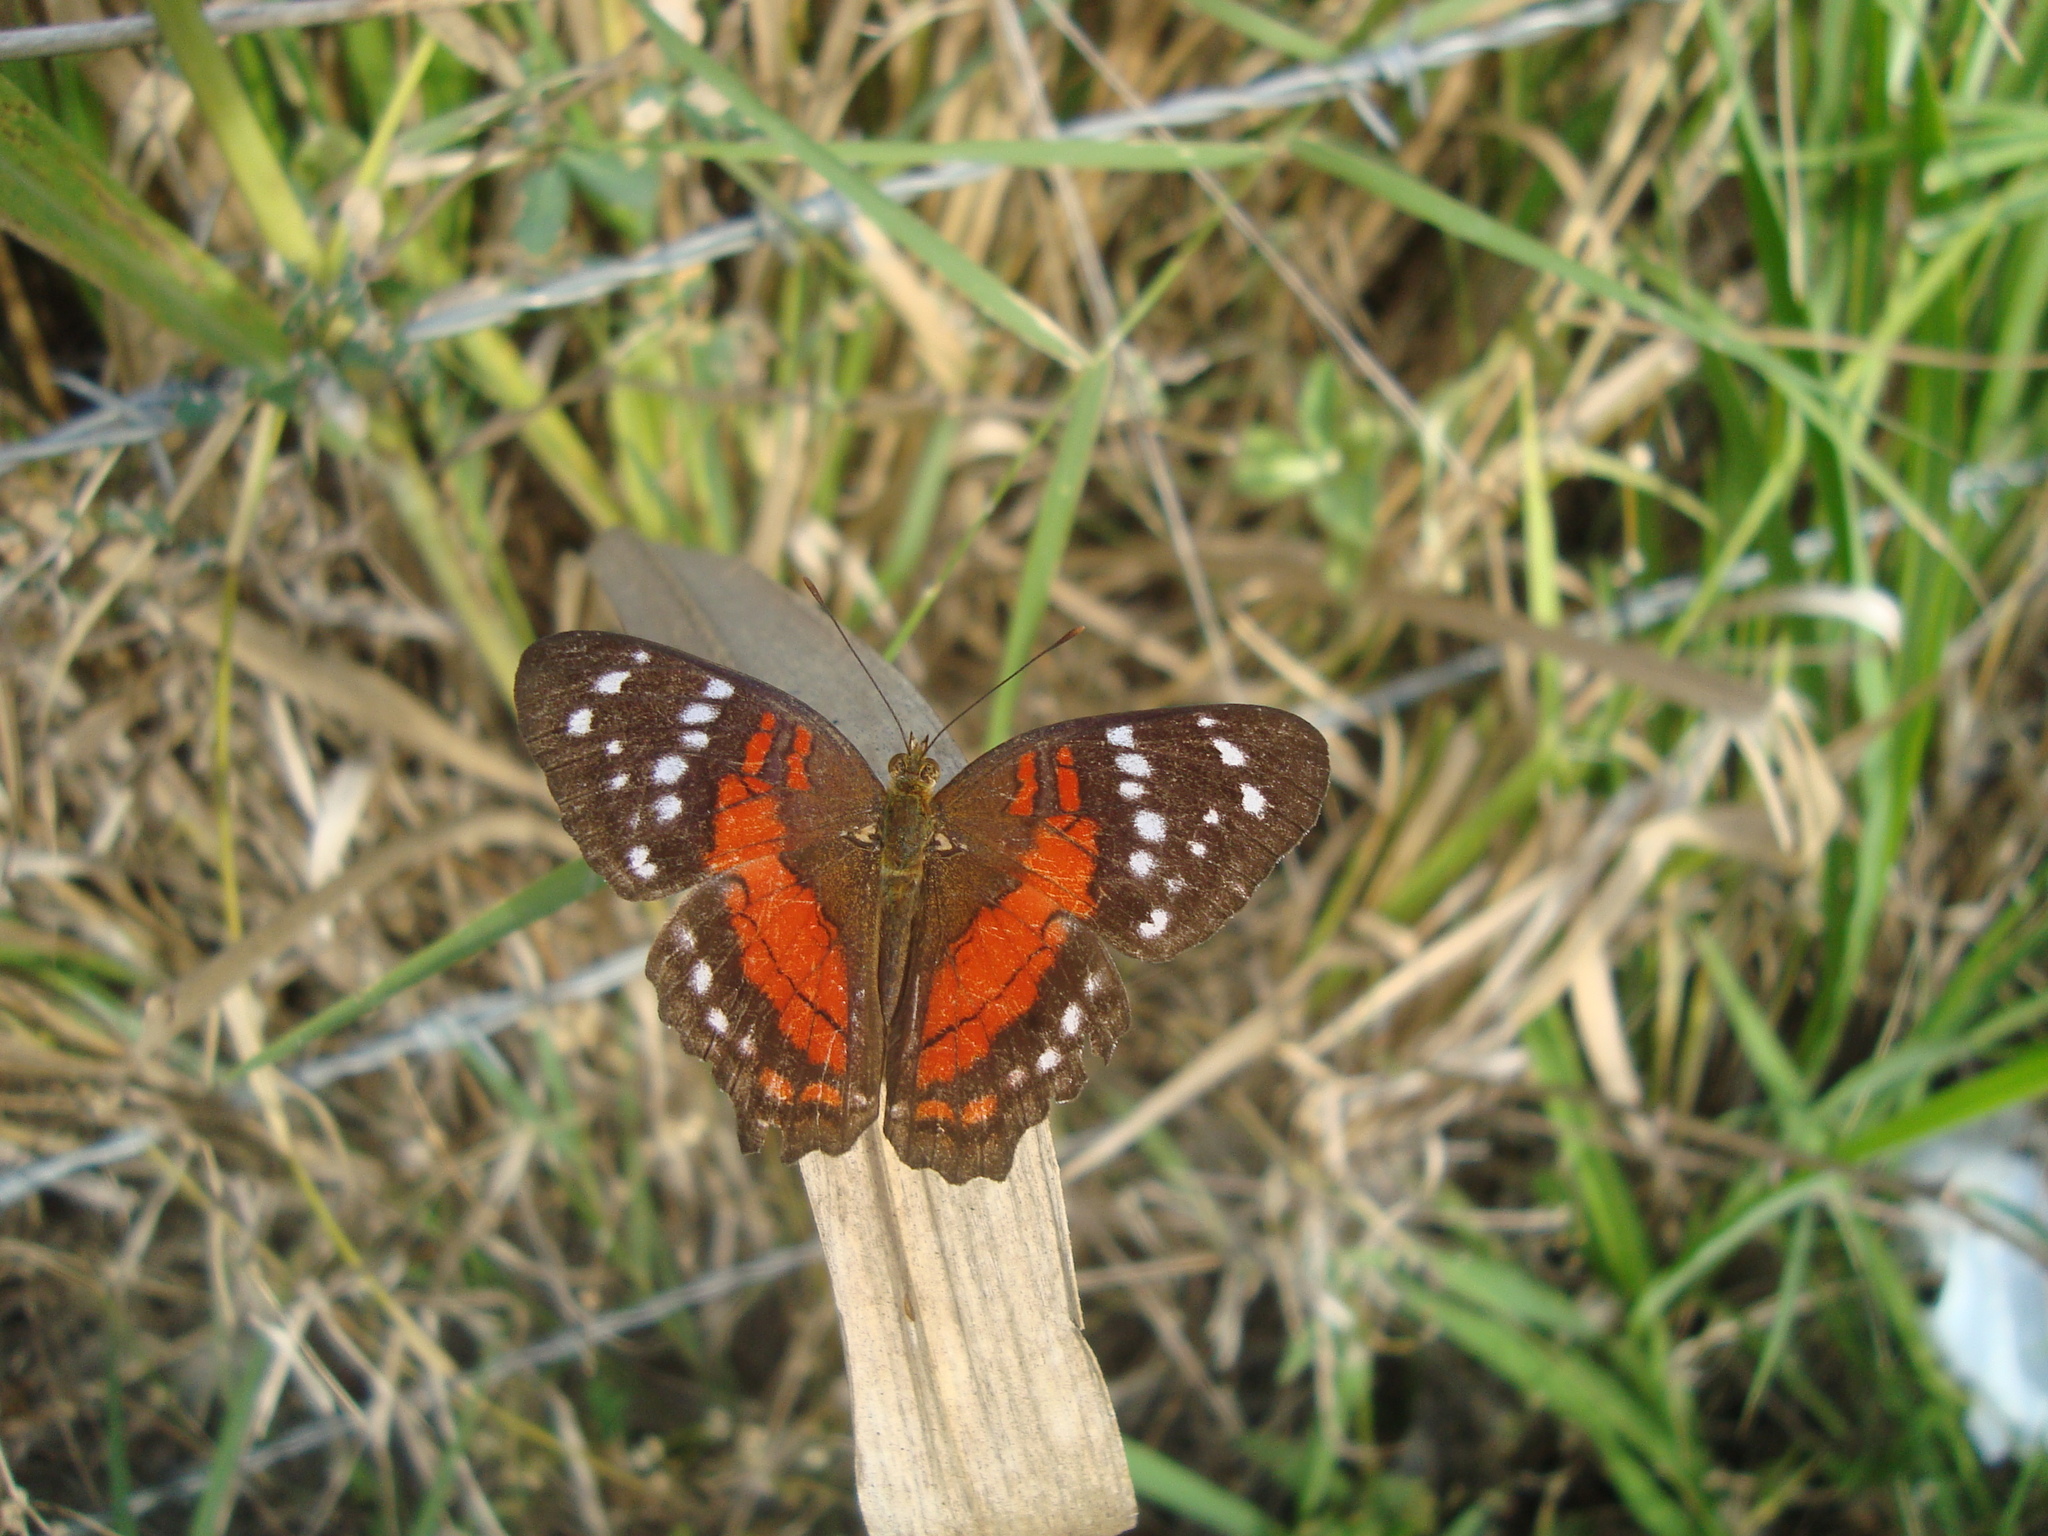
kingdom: Animalia
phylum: Arthropoda
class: Insecta
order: Lepidoptera
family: Nymphalidae
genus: Anartia
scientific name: Anartia amathea
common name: Red peacock
